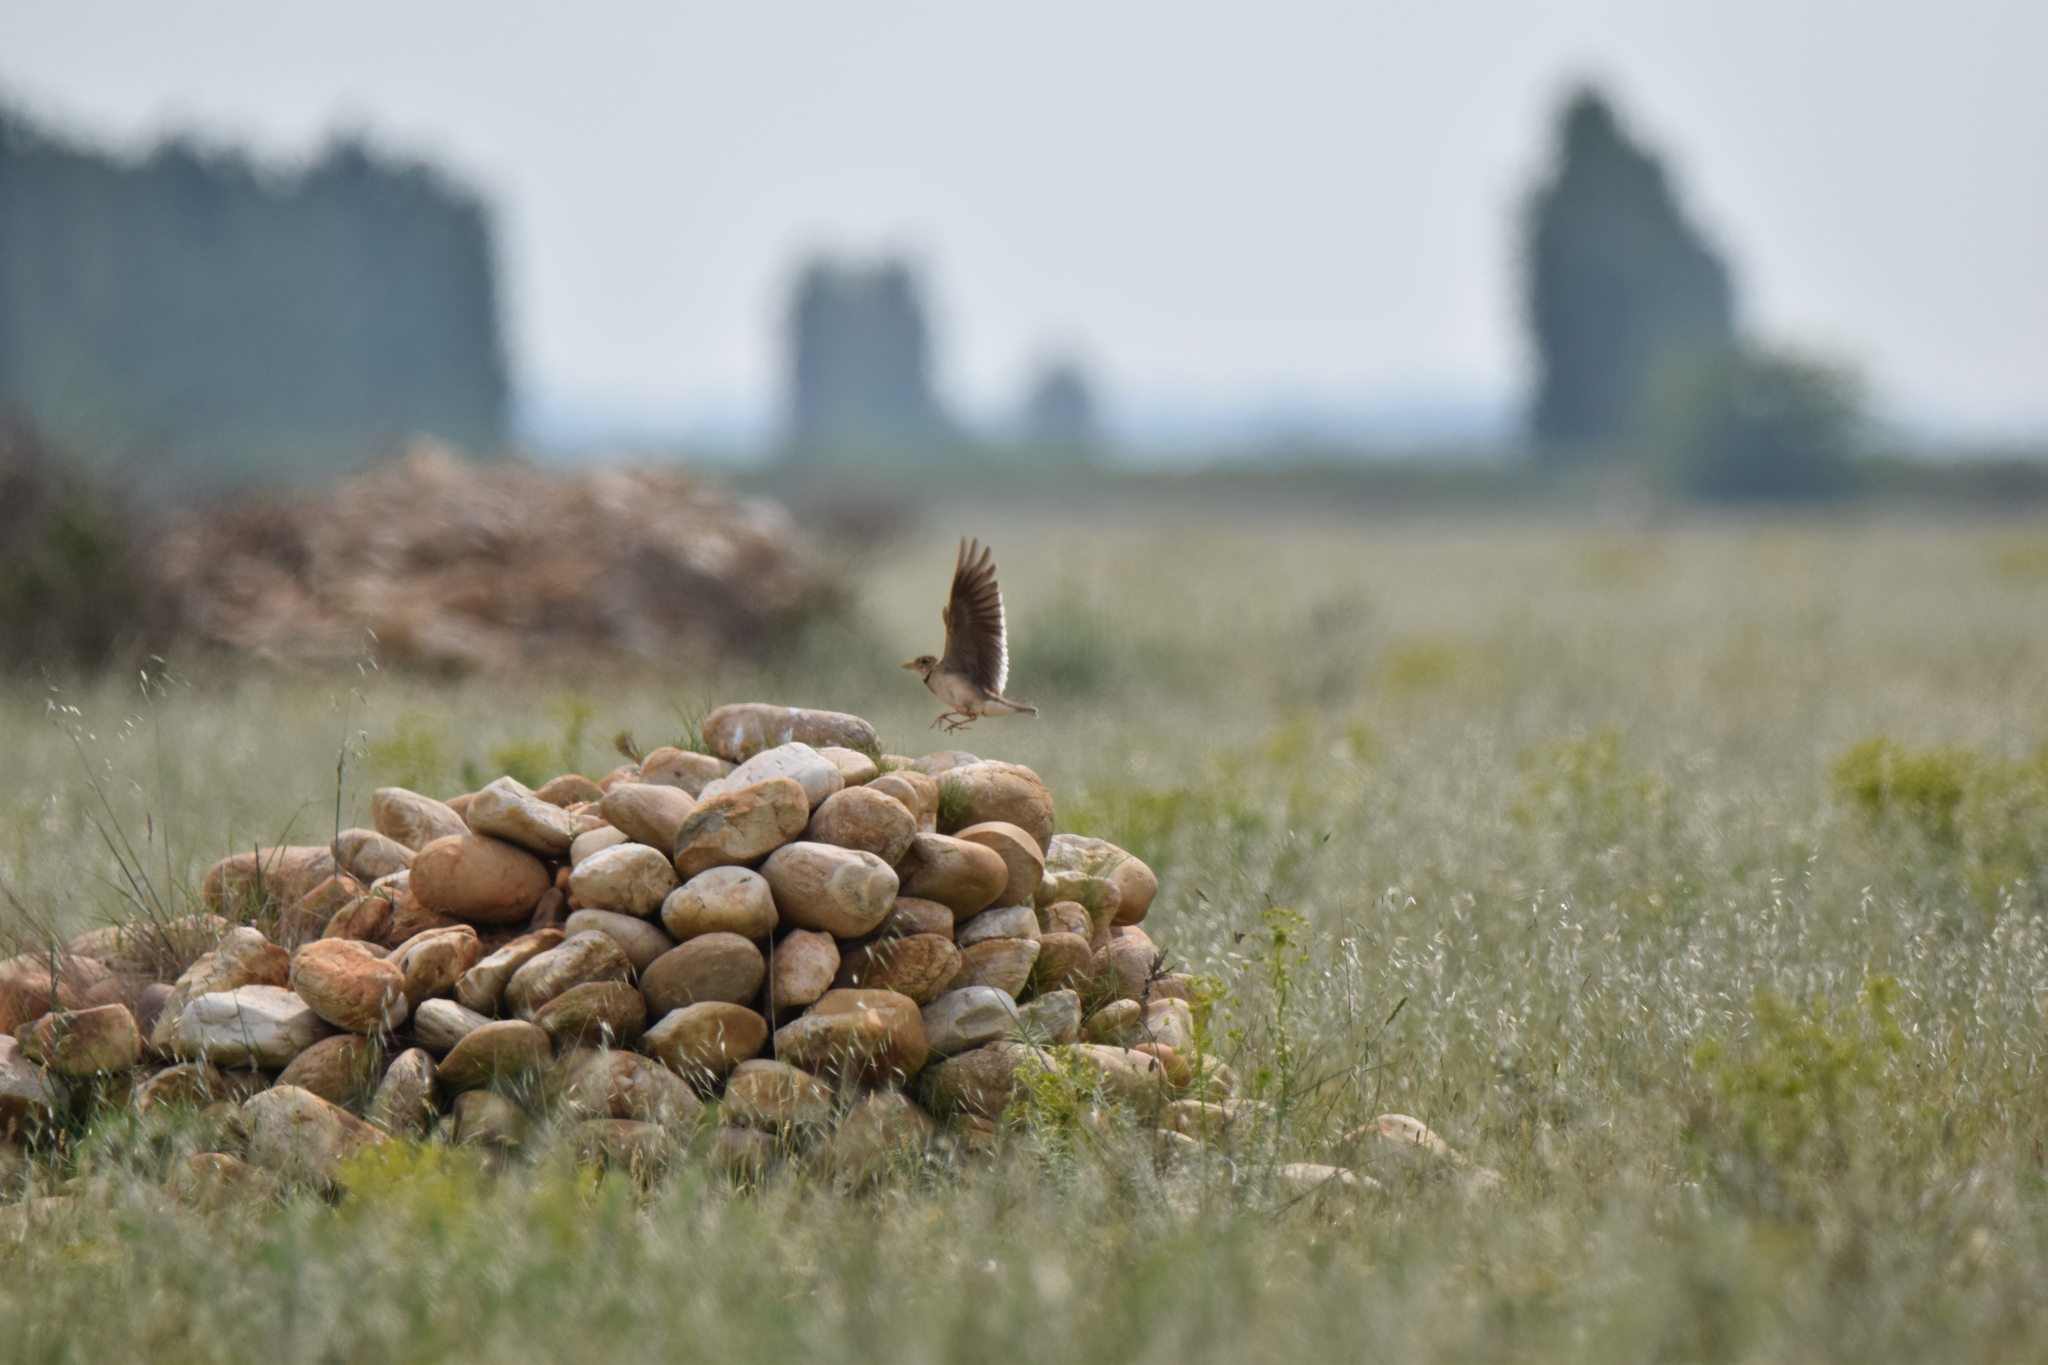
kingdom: Animalia
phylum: Chordata
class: Aves
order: Passeriformes
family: Alaudidae
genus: Melanocorypha
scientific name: Melanocorypha calandra
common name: Calandra lark
